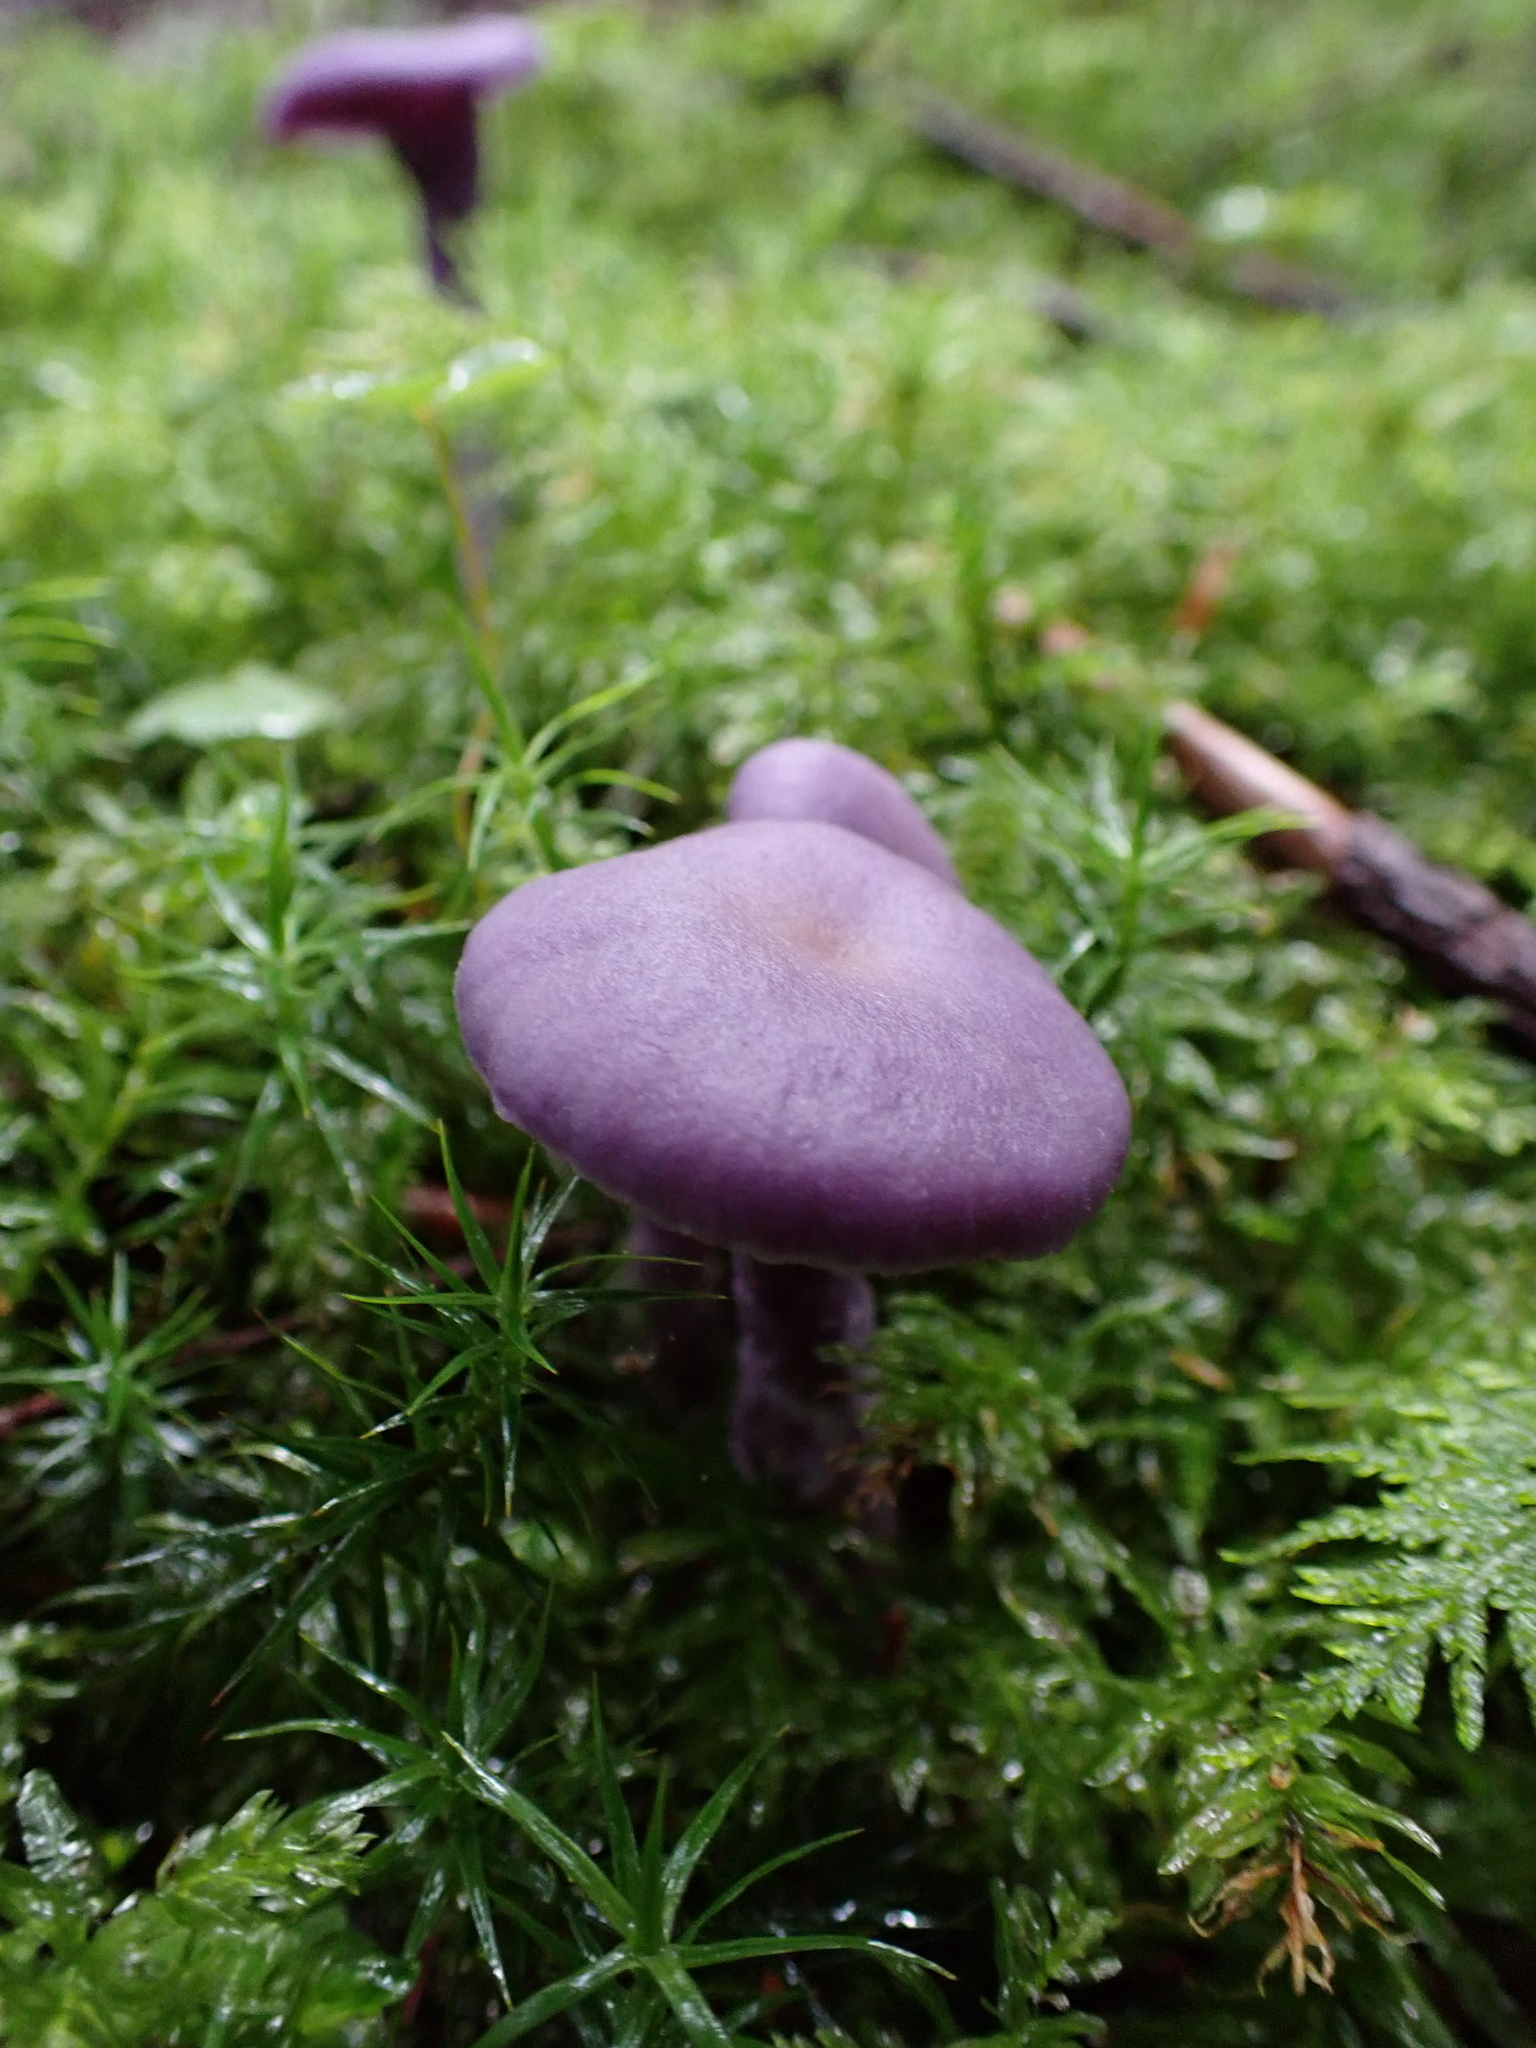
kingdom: Fungi
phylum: Basidiomycota
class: Agaricomycetes
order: Agaricales
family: Hydnangiaceae
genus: Laccaria
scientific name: Laccaria amethystina
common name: Amethyst deceiver
